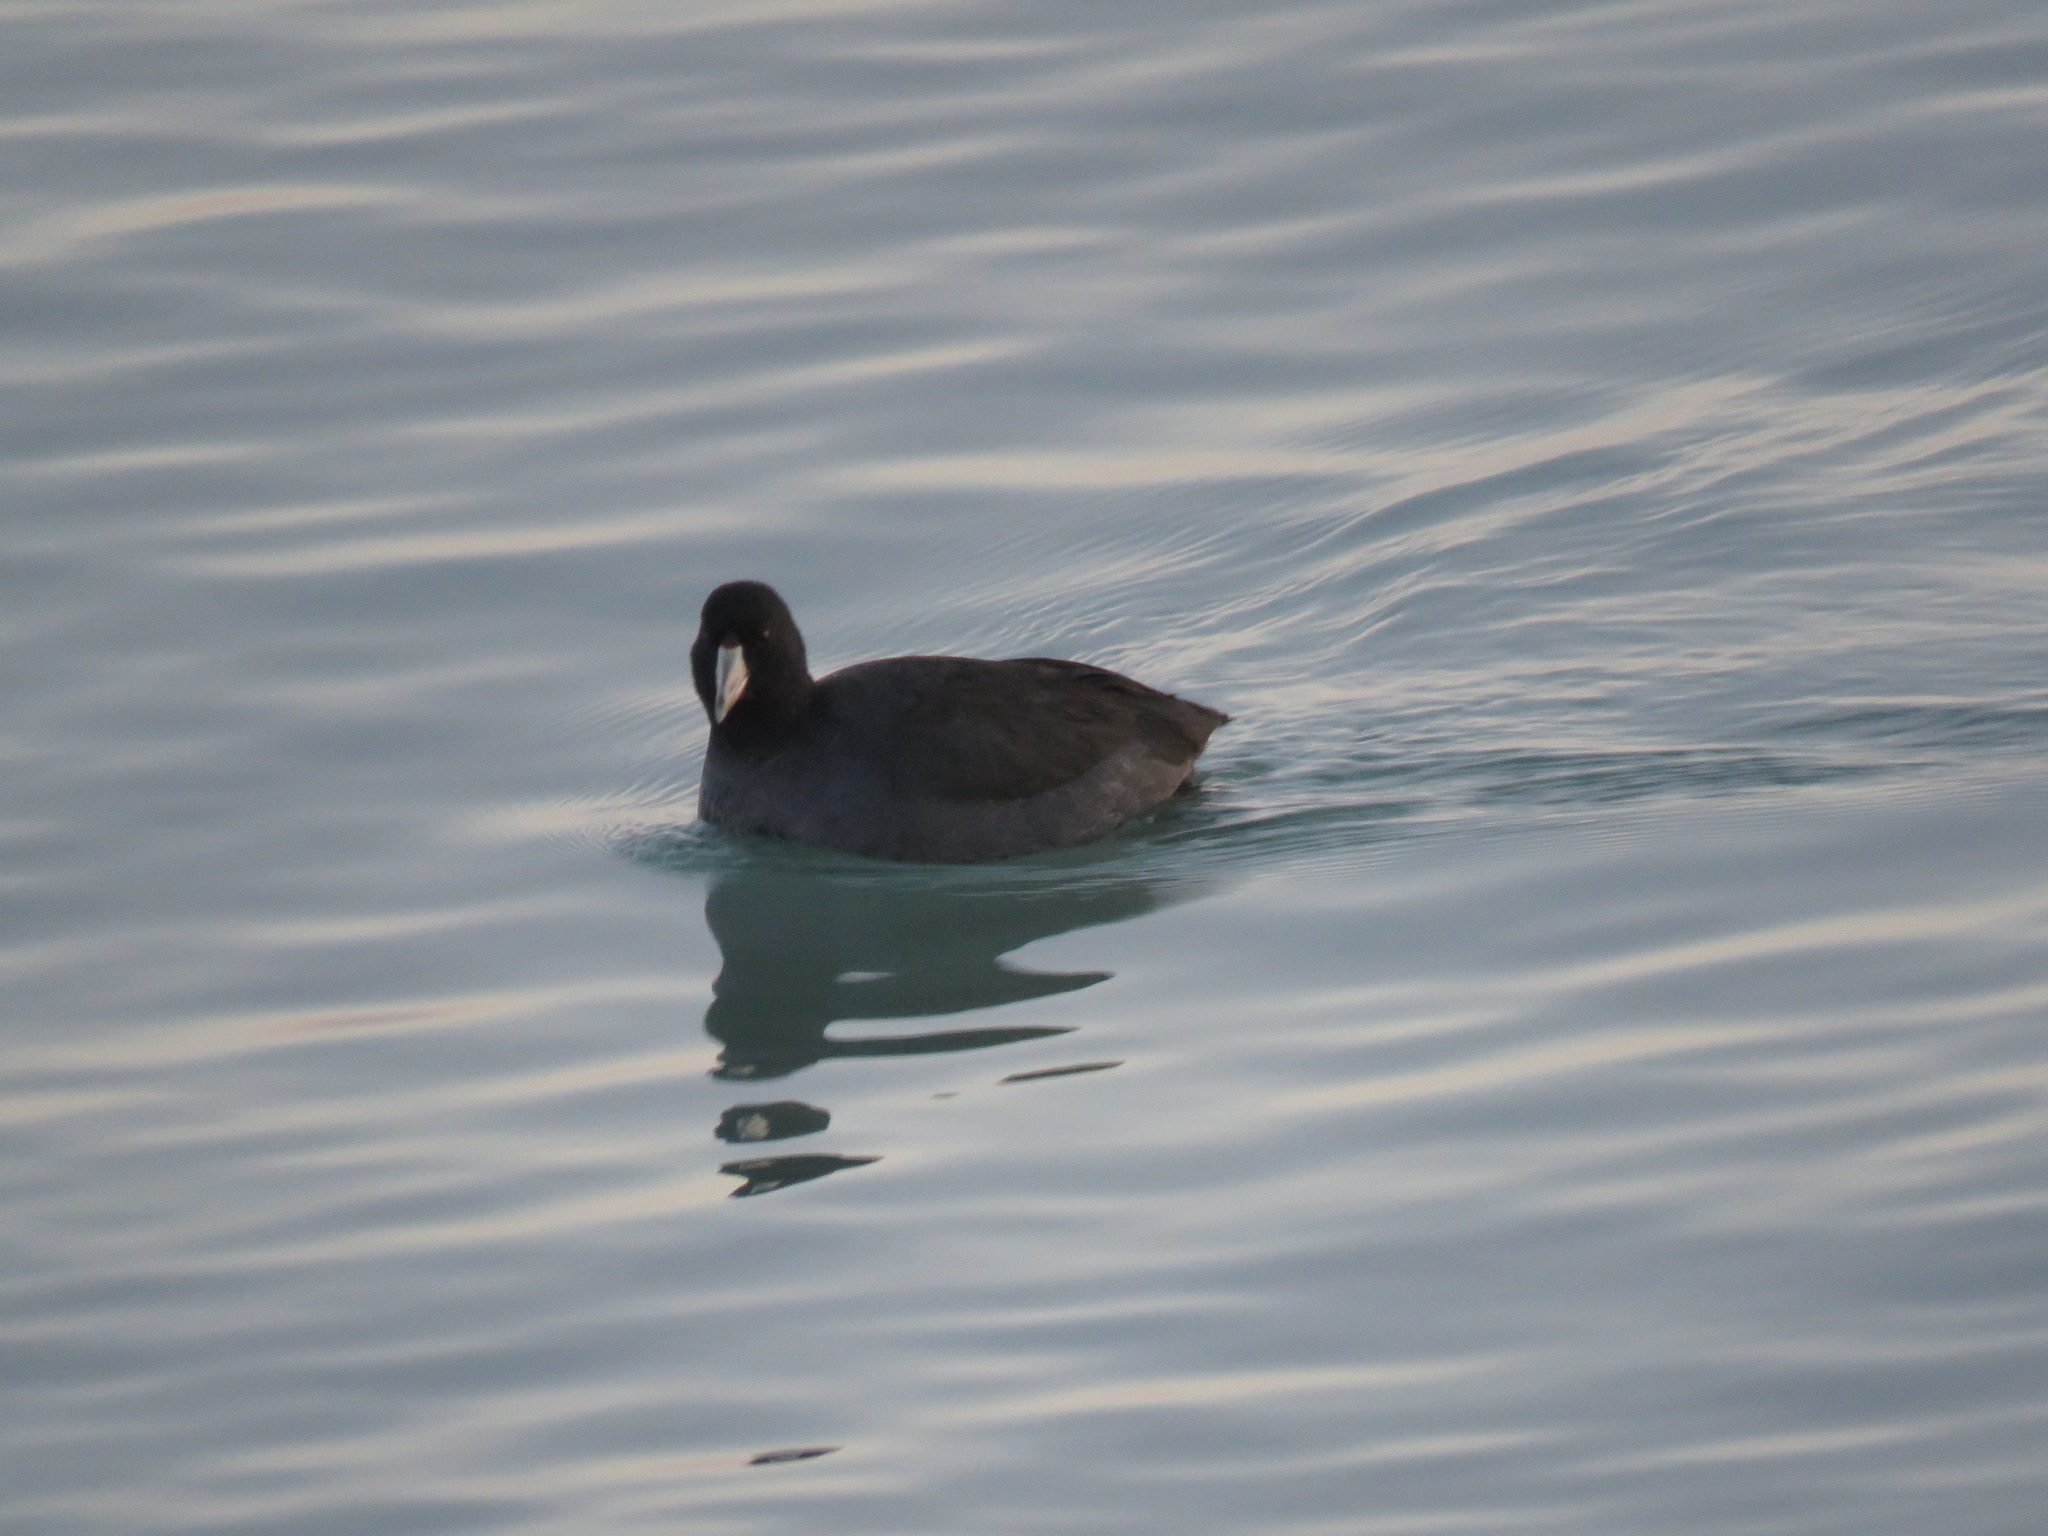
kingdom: Animalia
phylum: Chordata
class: Aves
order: Gruiformes
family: Rallidae
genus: Fulica
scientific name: Fulica americana
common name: American coot
